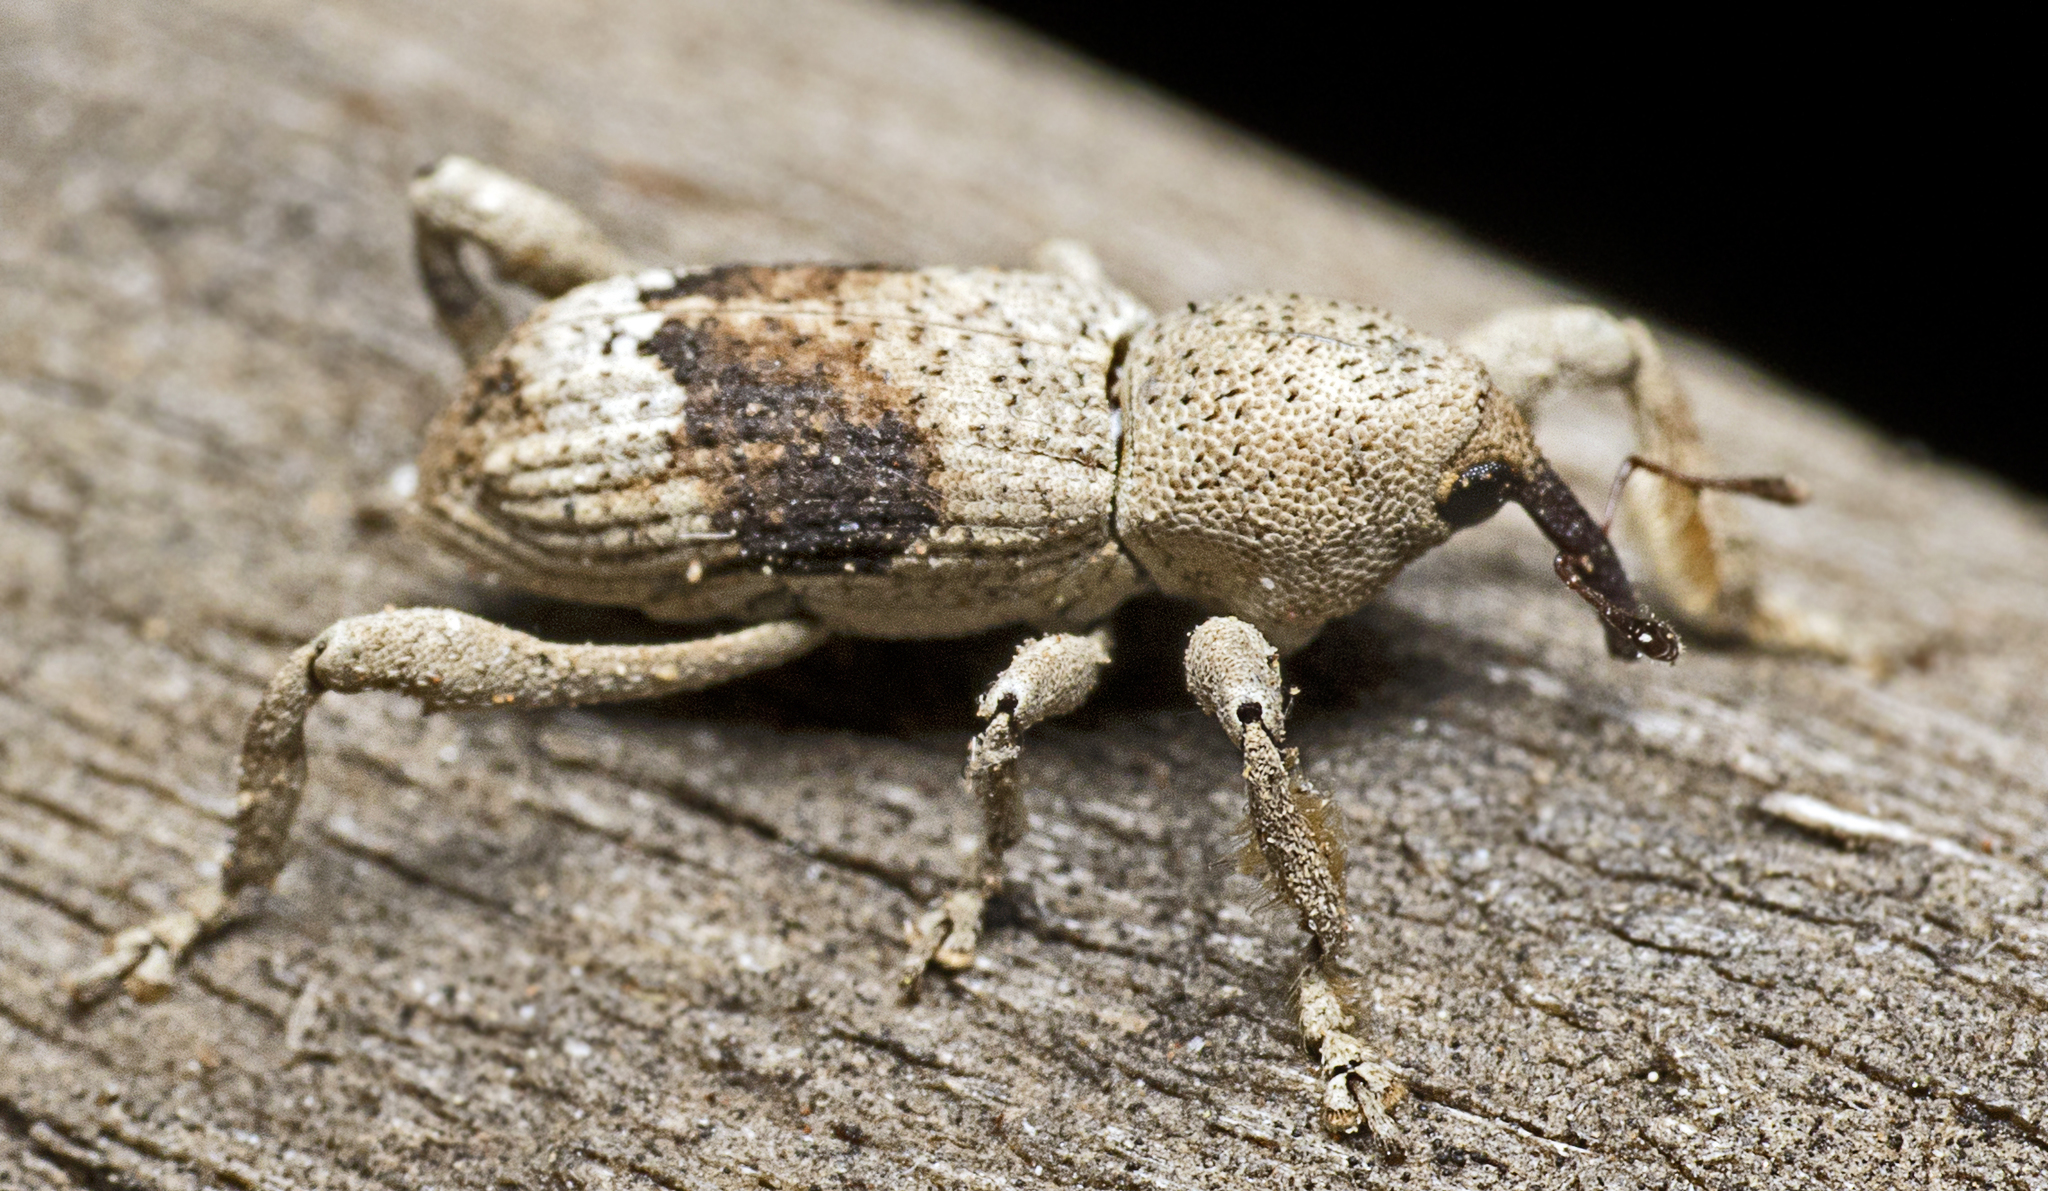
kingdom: Animalia
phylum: Arthropoda
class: Insecta
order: Coleoptera
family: Curculionidae
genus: Camptorhinus
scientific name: Camptorhinus inornatus
